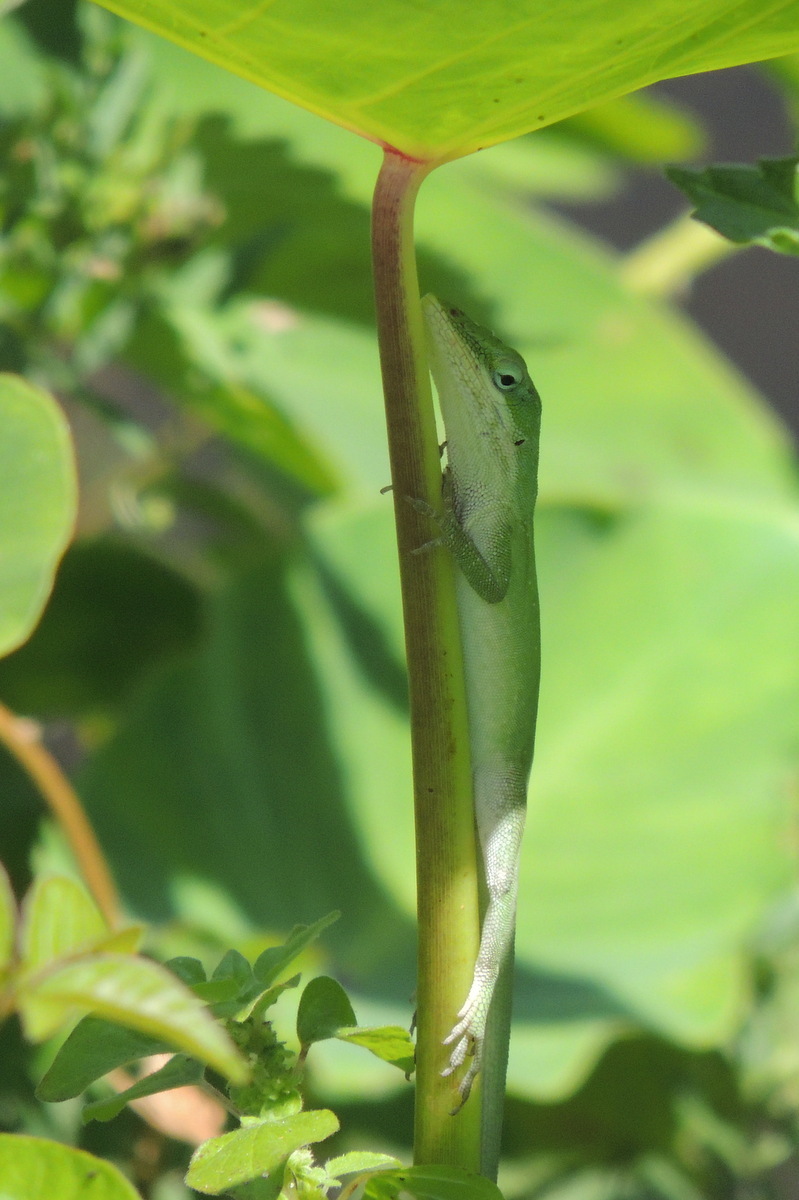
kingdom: Animalia
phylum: Chordata
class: Squamata
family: Dactyloidae
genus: Anolis
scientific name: Anolis carolinensis
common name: Green anole
